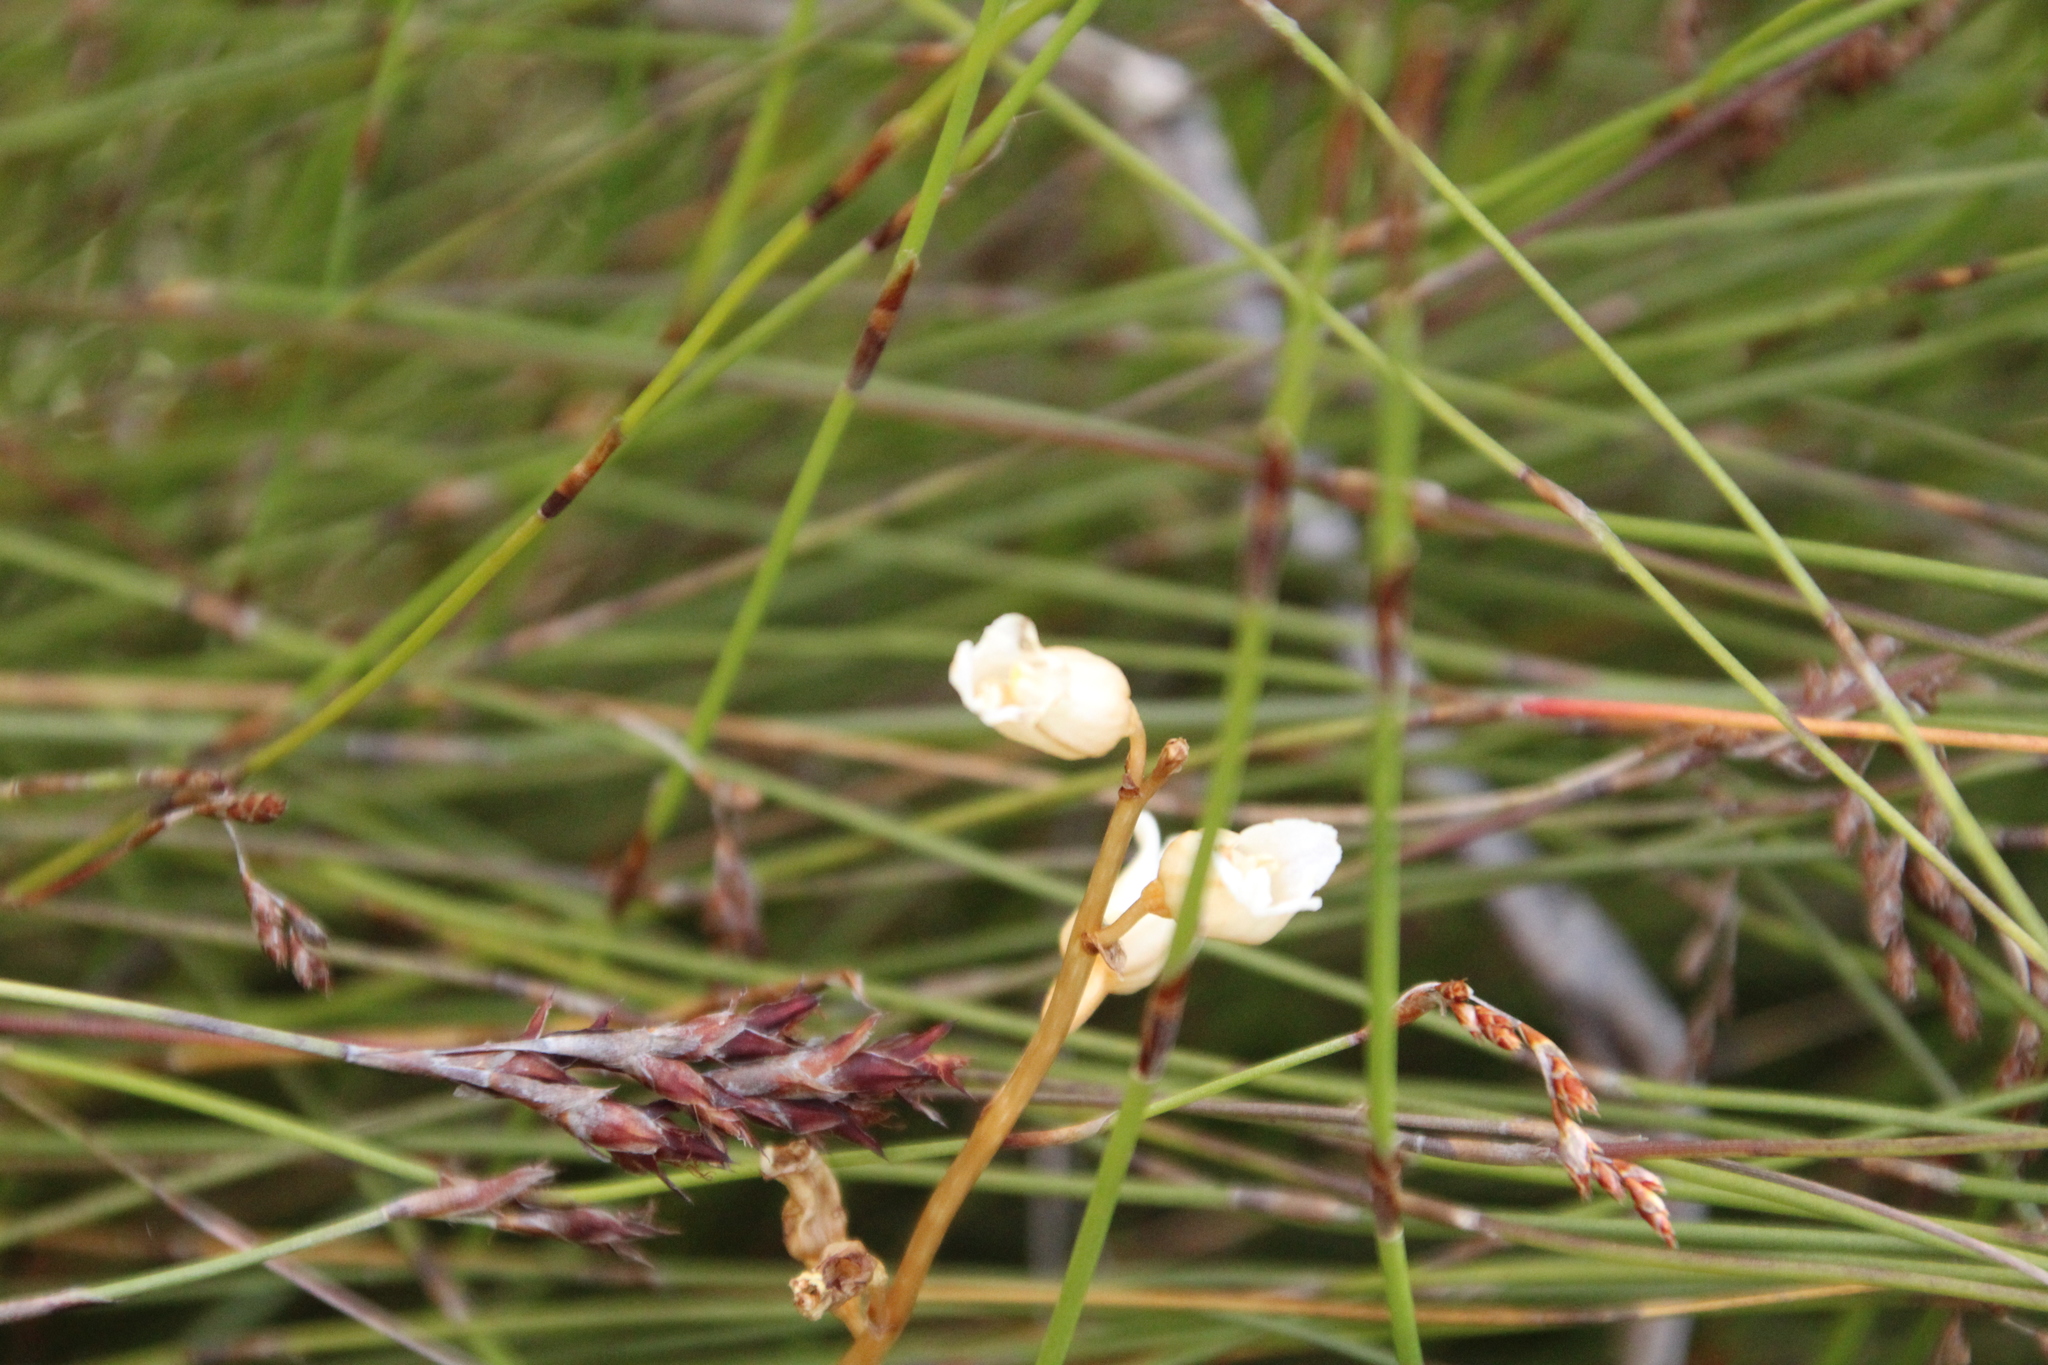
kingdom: Plantae
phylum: Tracheophyta
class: Liliopsida
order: Asparagales
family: Orchidaceae
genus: Gastrodia
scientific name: Gastrodia lacista
